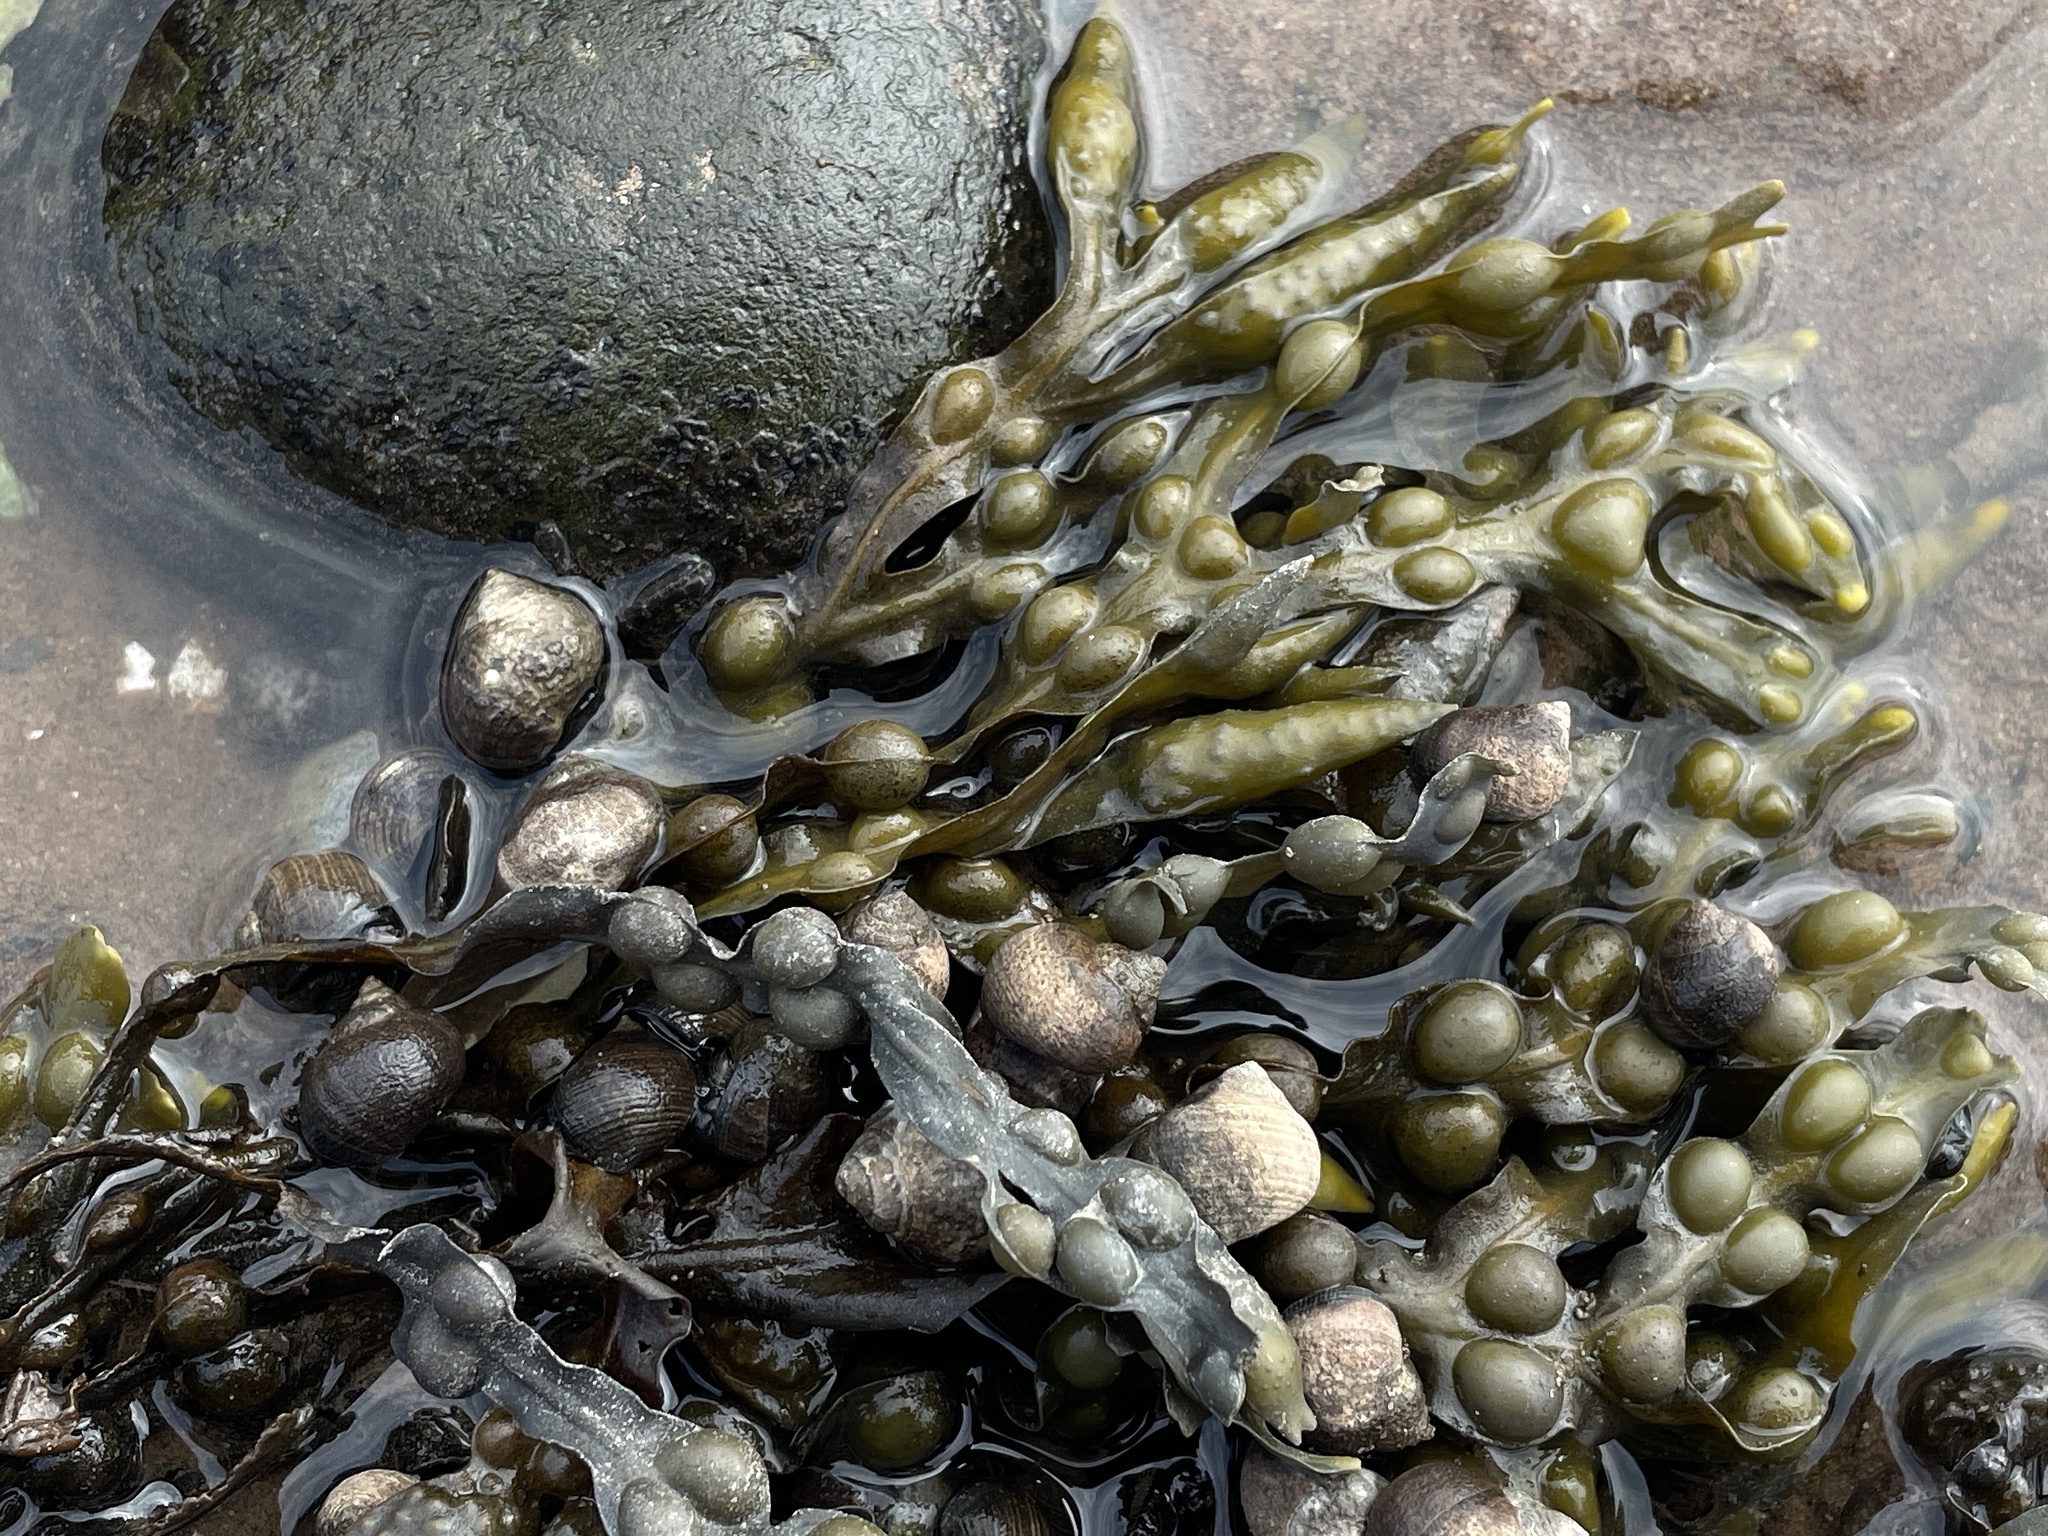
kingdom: Chromista
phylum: Ochrophyta
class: Phaeophyceae
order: Fucales
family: Fucaceae
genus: Fucus
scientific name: Fucus vesiculosus
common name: Bladder wrack
